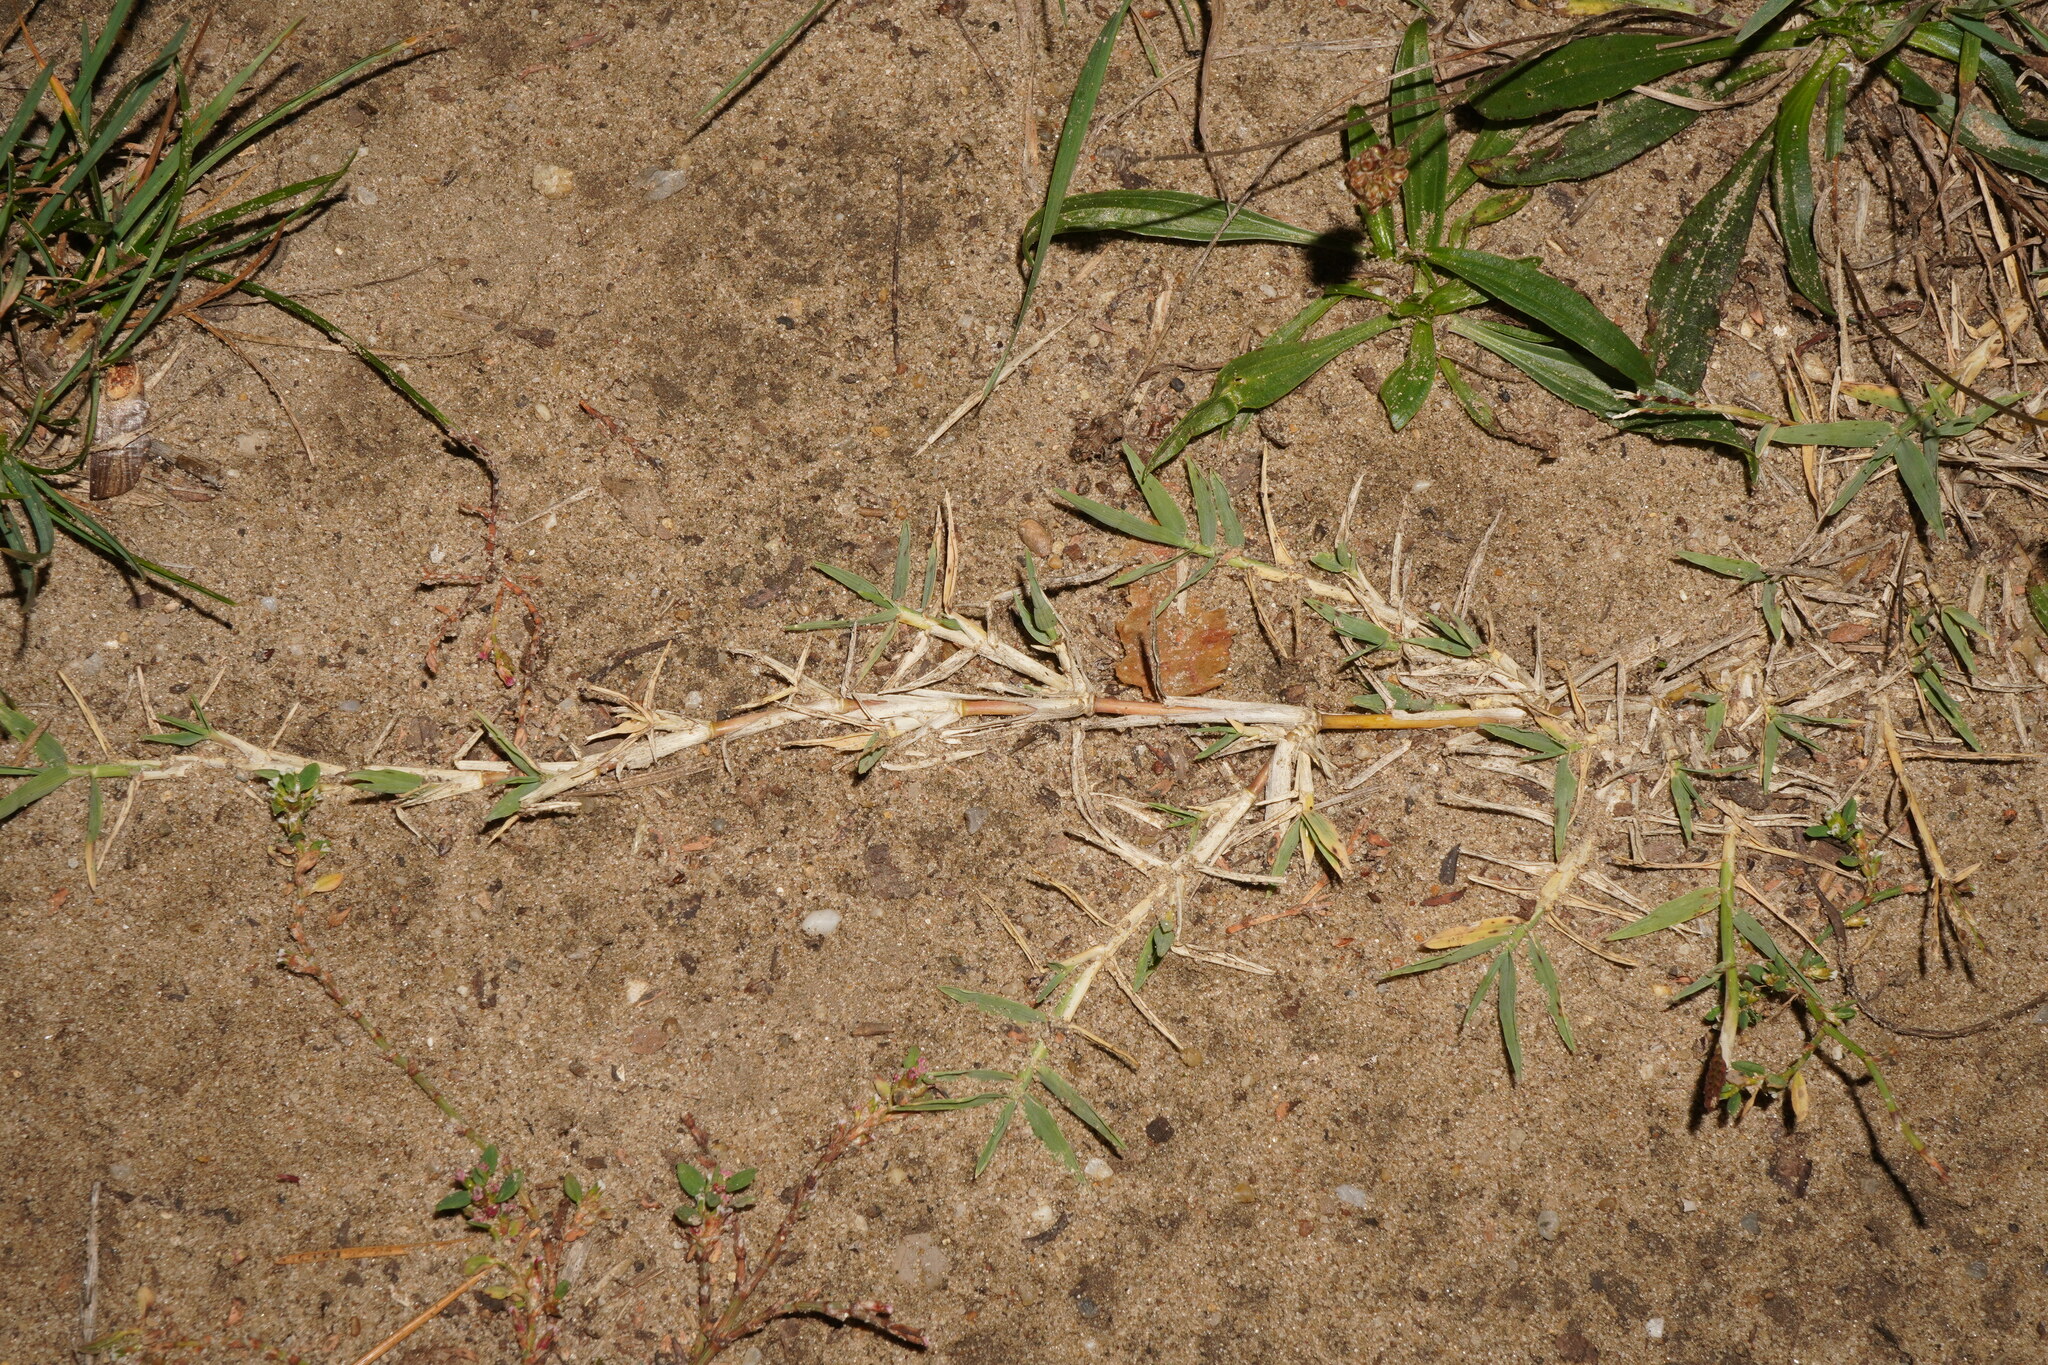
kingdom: Plantae
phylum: Tracheophyta
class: Liliopsida
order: Poales
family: Poaceae
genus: Cynodon
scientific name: Cynodon dactylon
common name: Bermuda grass
